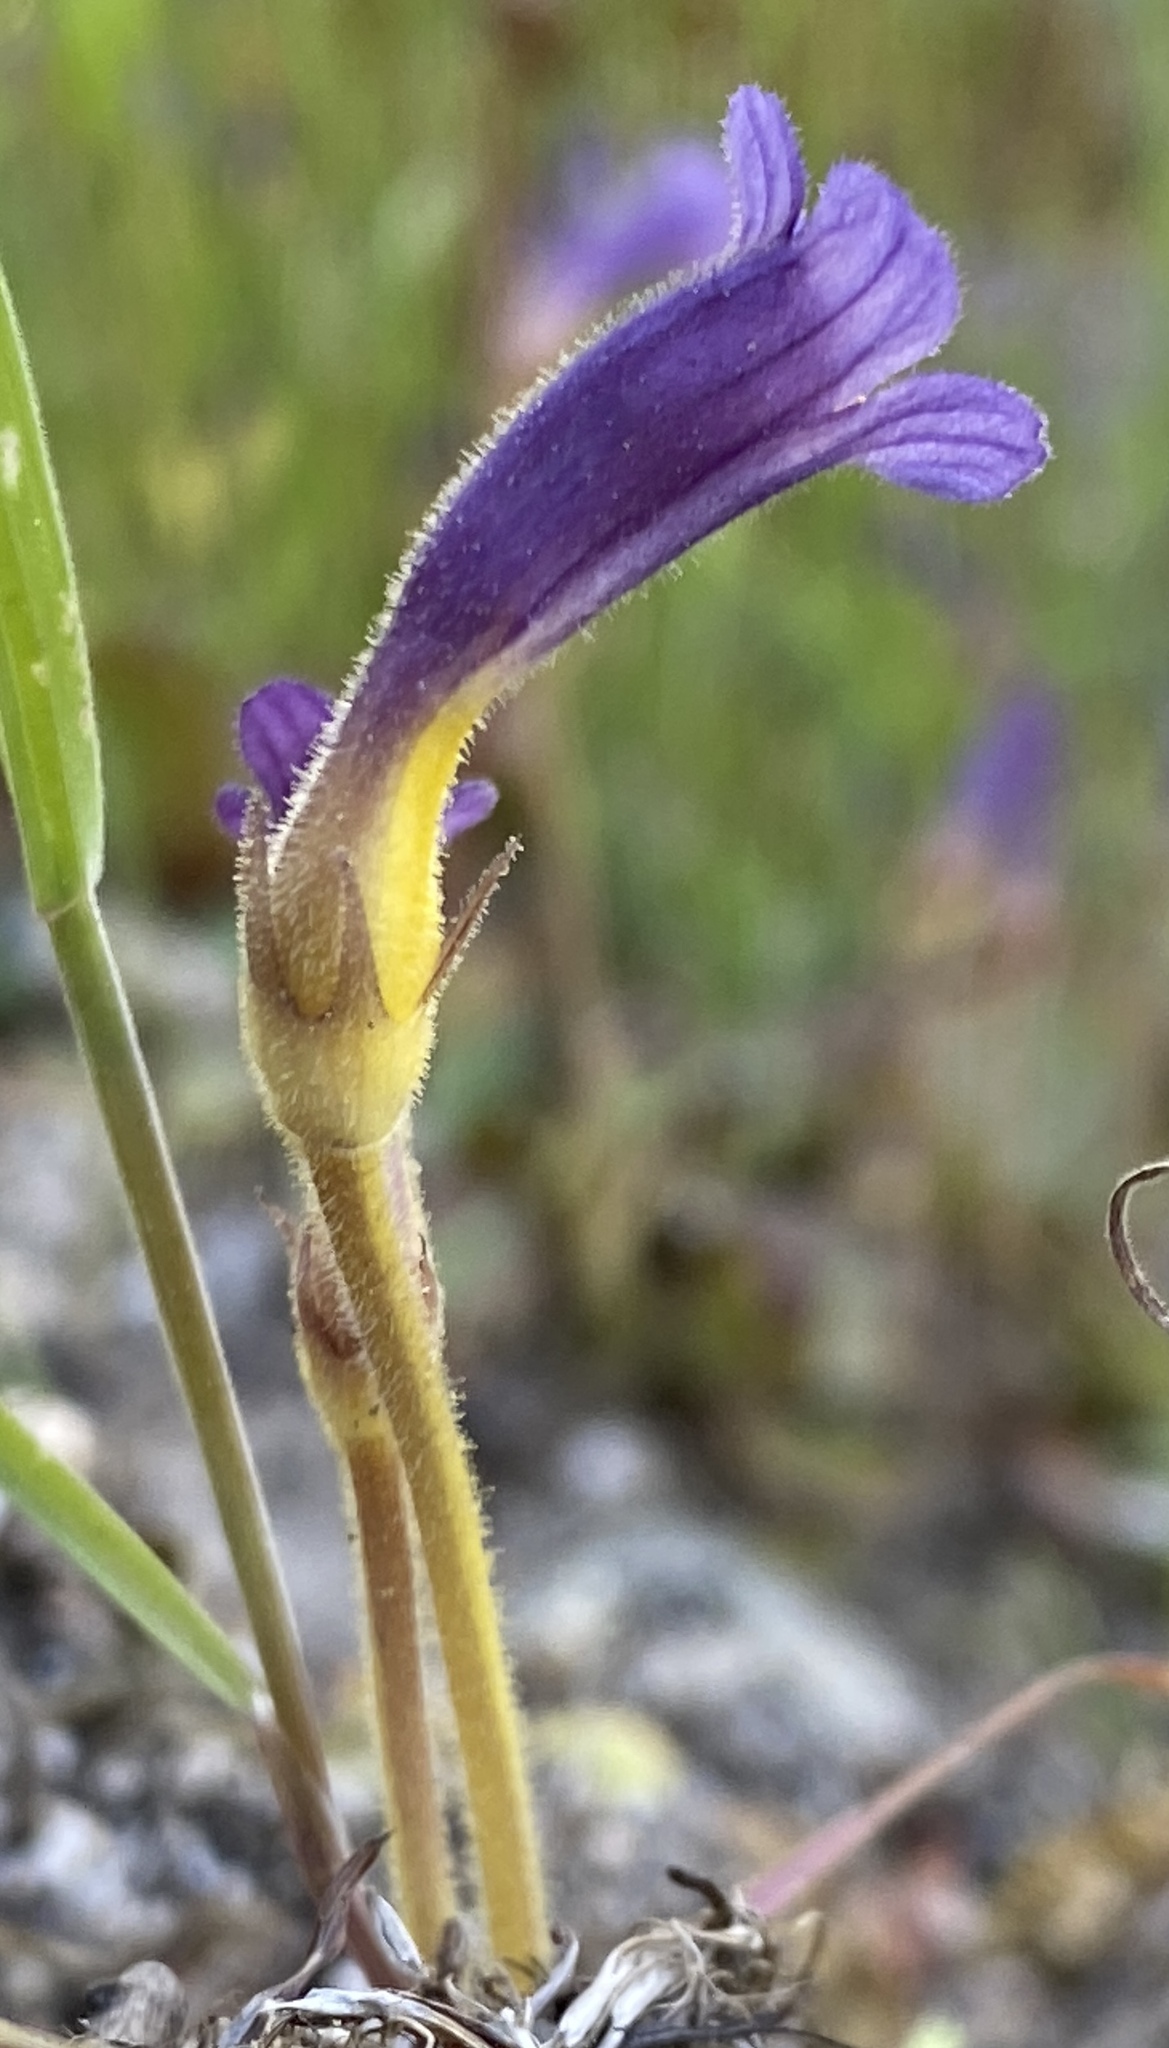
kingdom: Plantae
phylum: Tracheophyta
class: Magnoliopsida
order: Lamiales
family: Orobanchaceae
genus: Aphyllon
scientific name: Aphyllon uniflorum
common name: One-flowered broomrape
